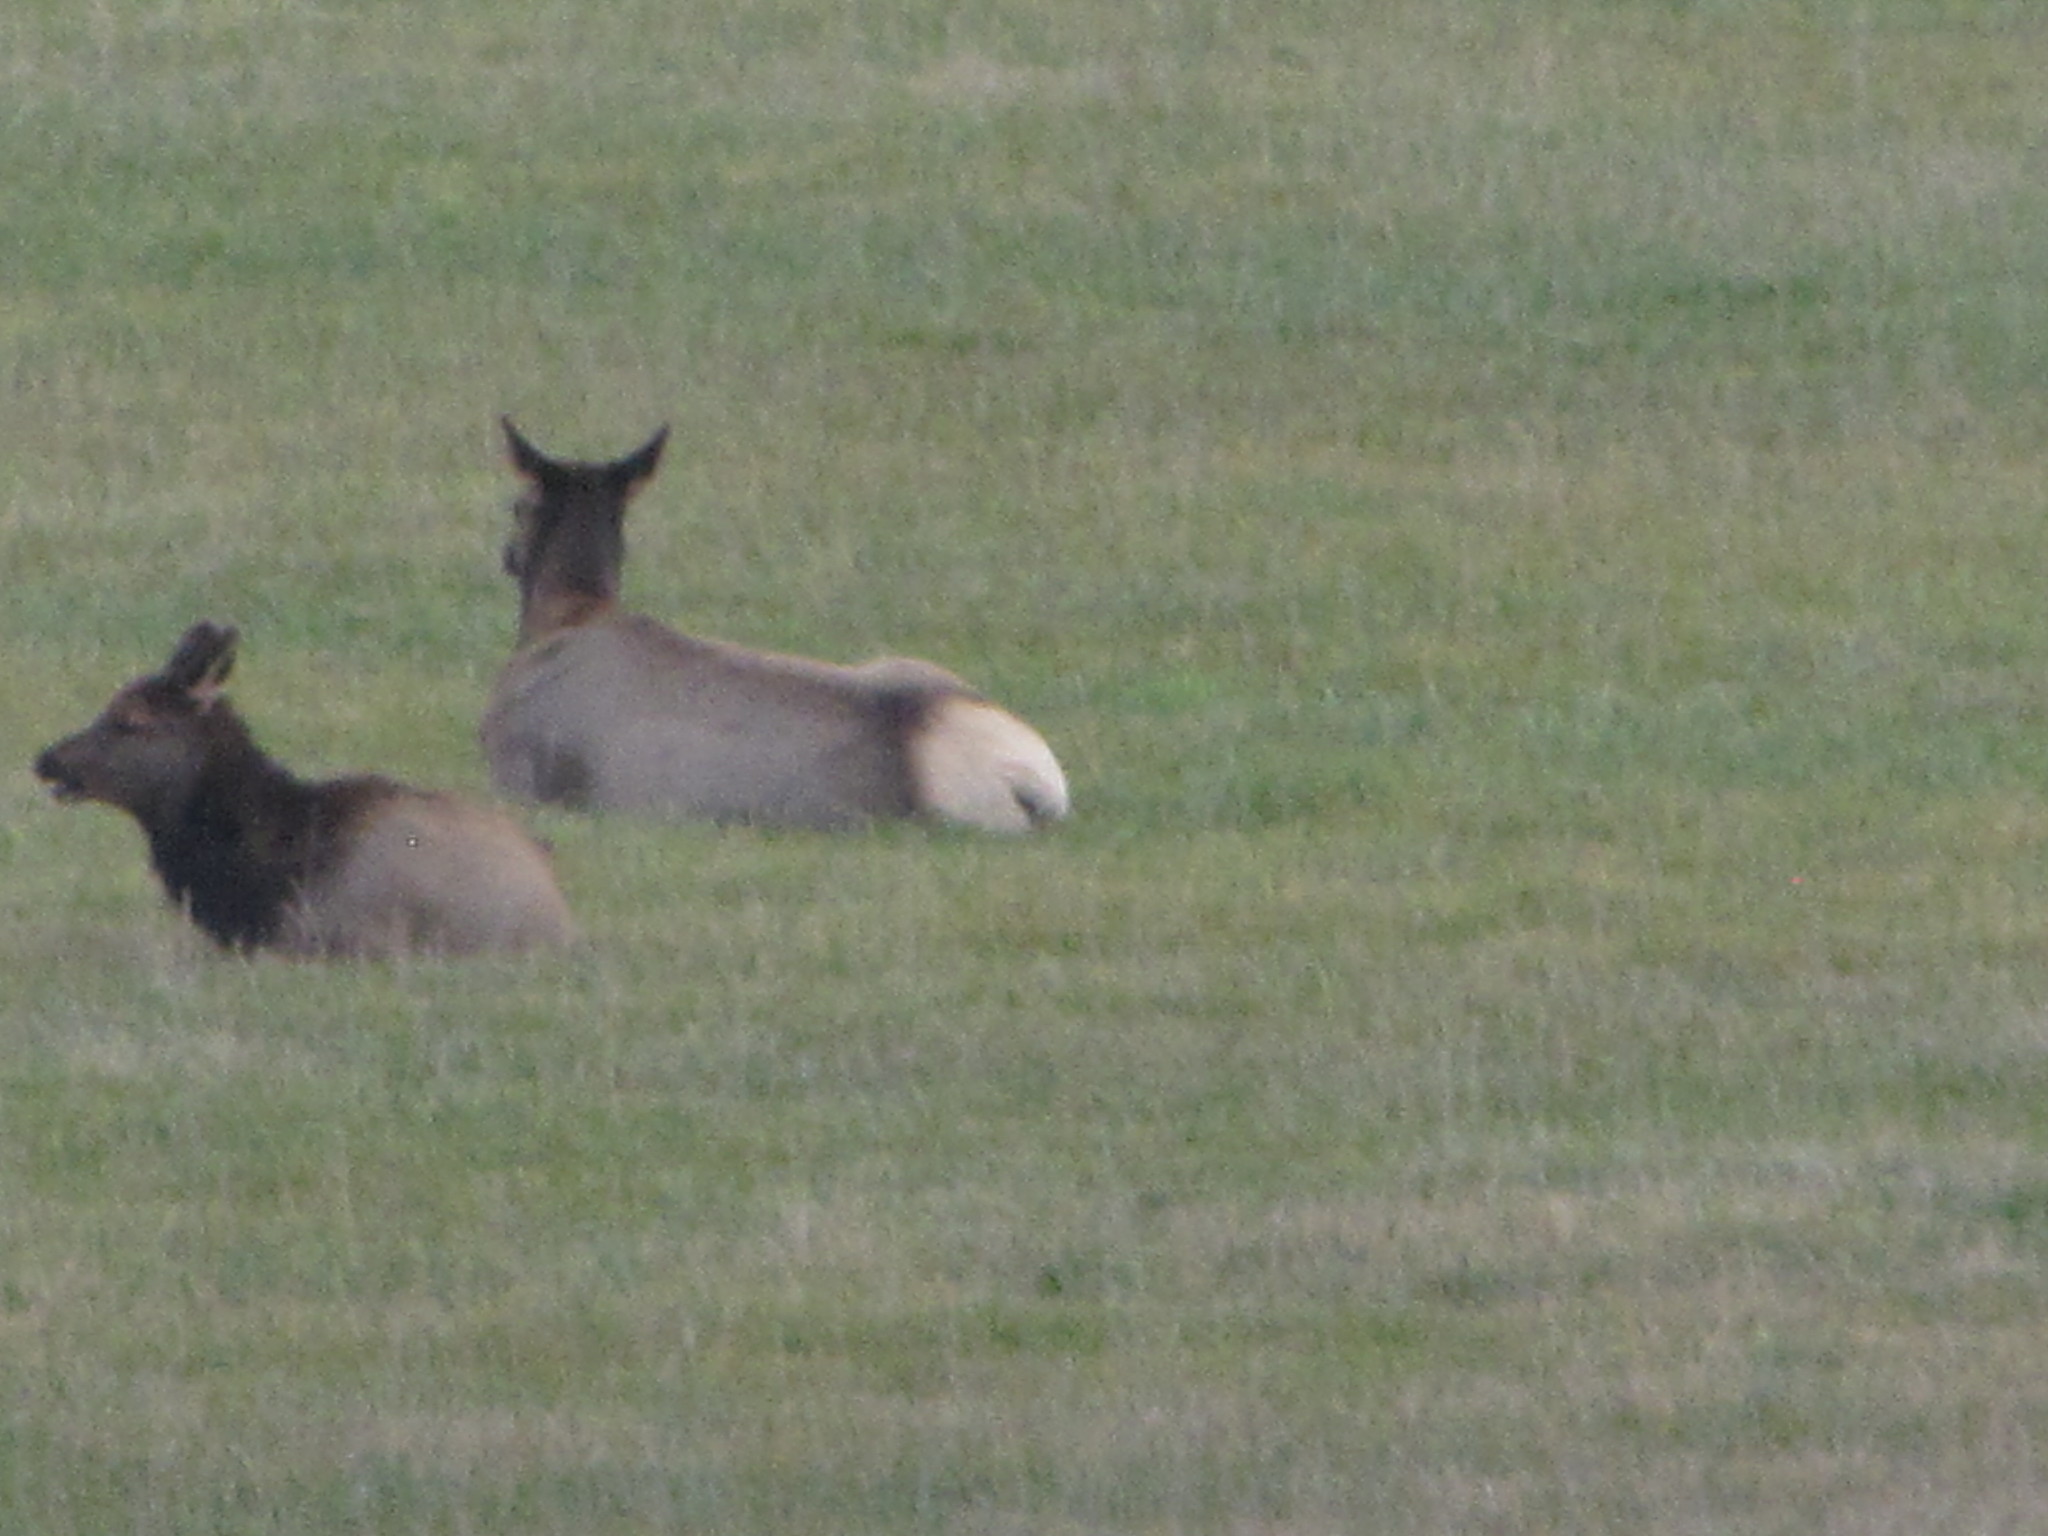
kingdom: Animalia
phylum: Chordata
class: Mammalia
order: Artiodactyla
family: Cervidae
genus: Cervus
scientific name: Cervus elaphus
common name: Red deer
